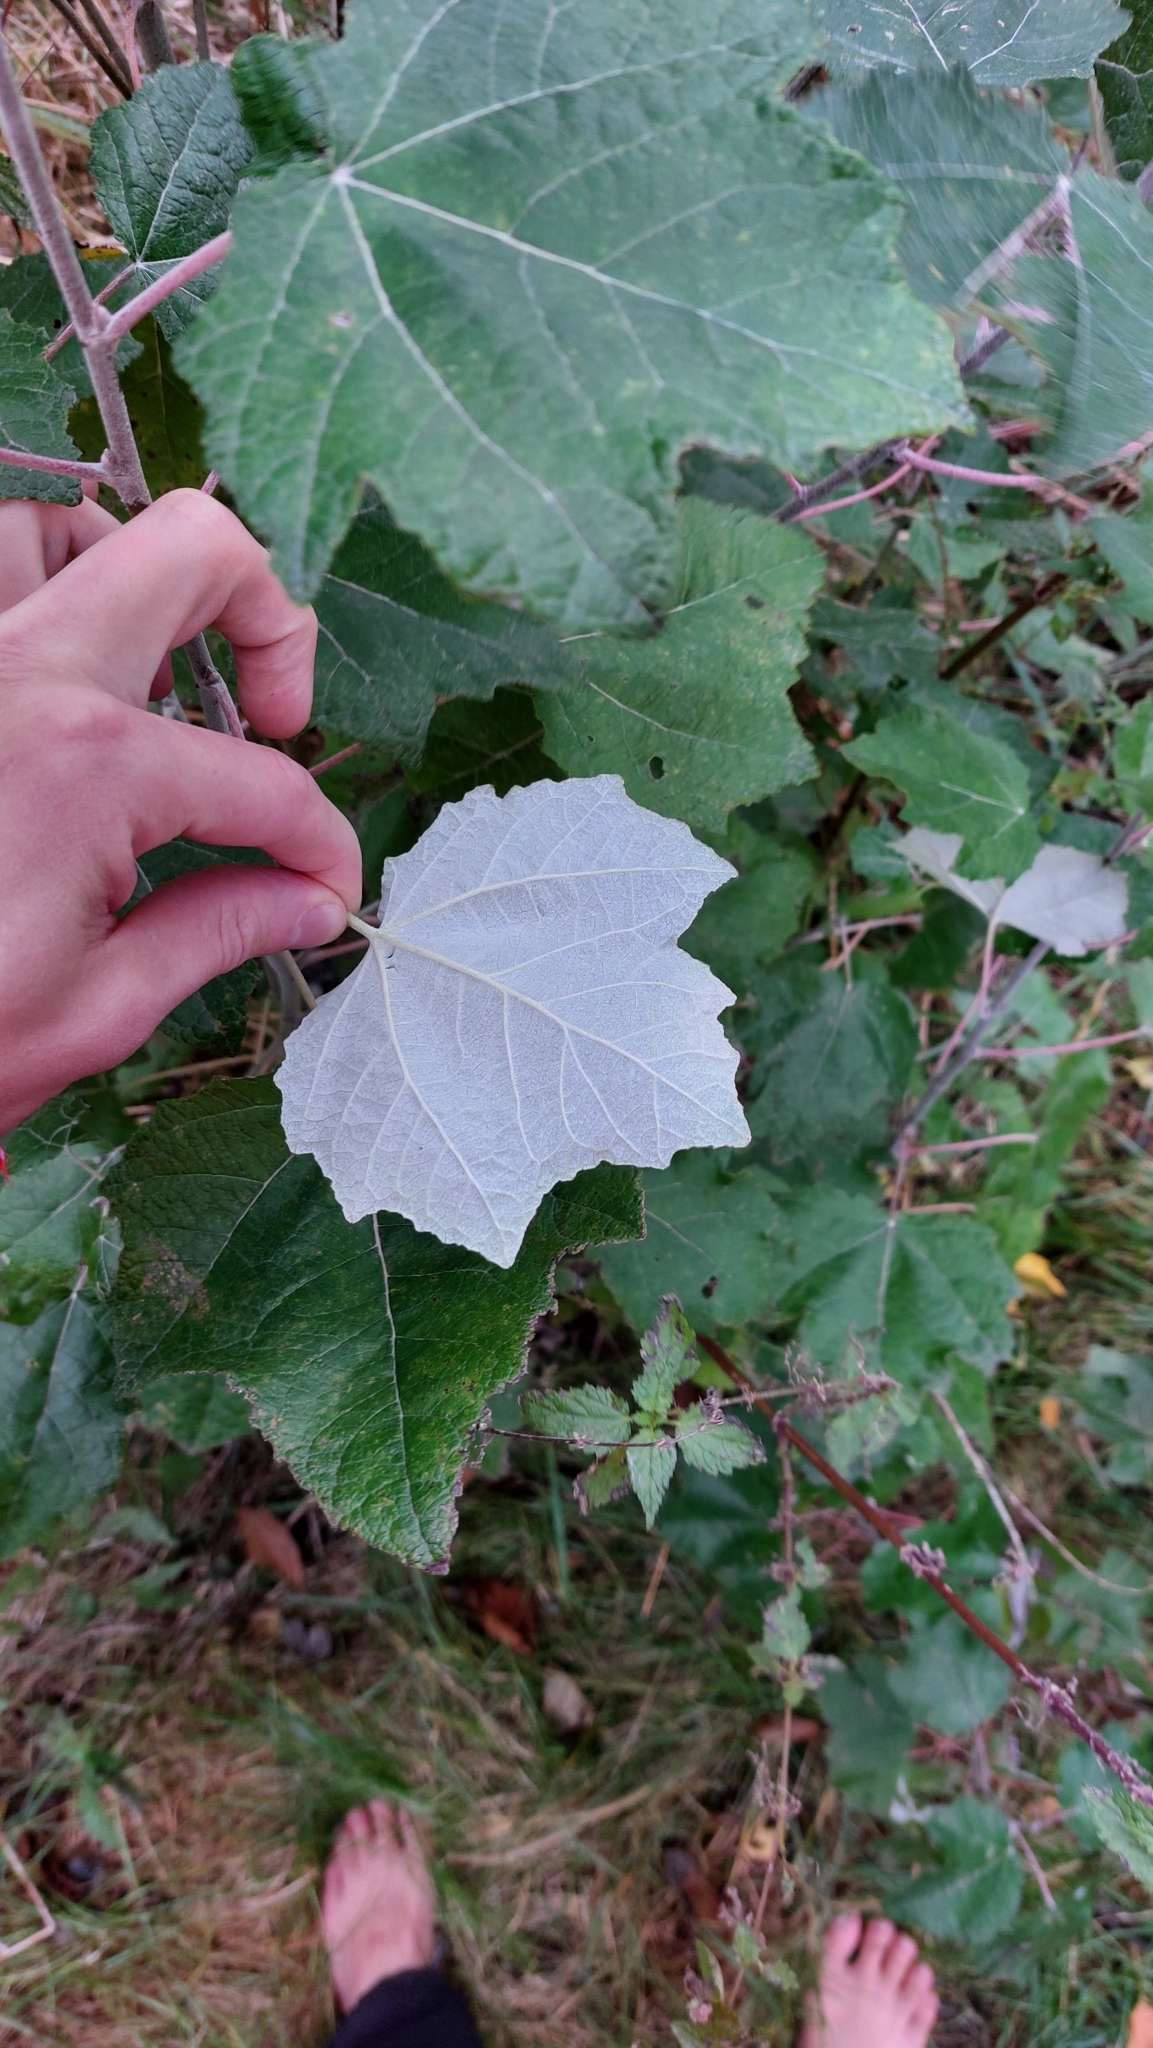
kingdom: Plantae
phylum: Tracheophyta
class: Magnoliopsida
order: Malpighiales
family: Salicaceae
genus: Populus
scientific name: Populus canescens
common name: Gray poplar
